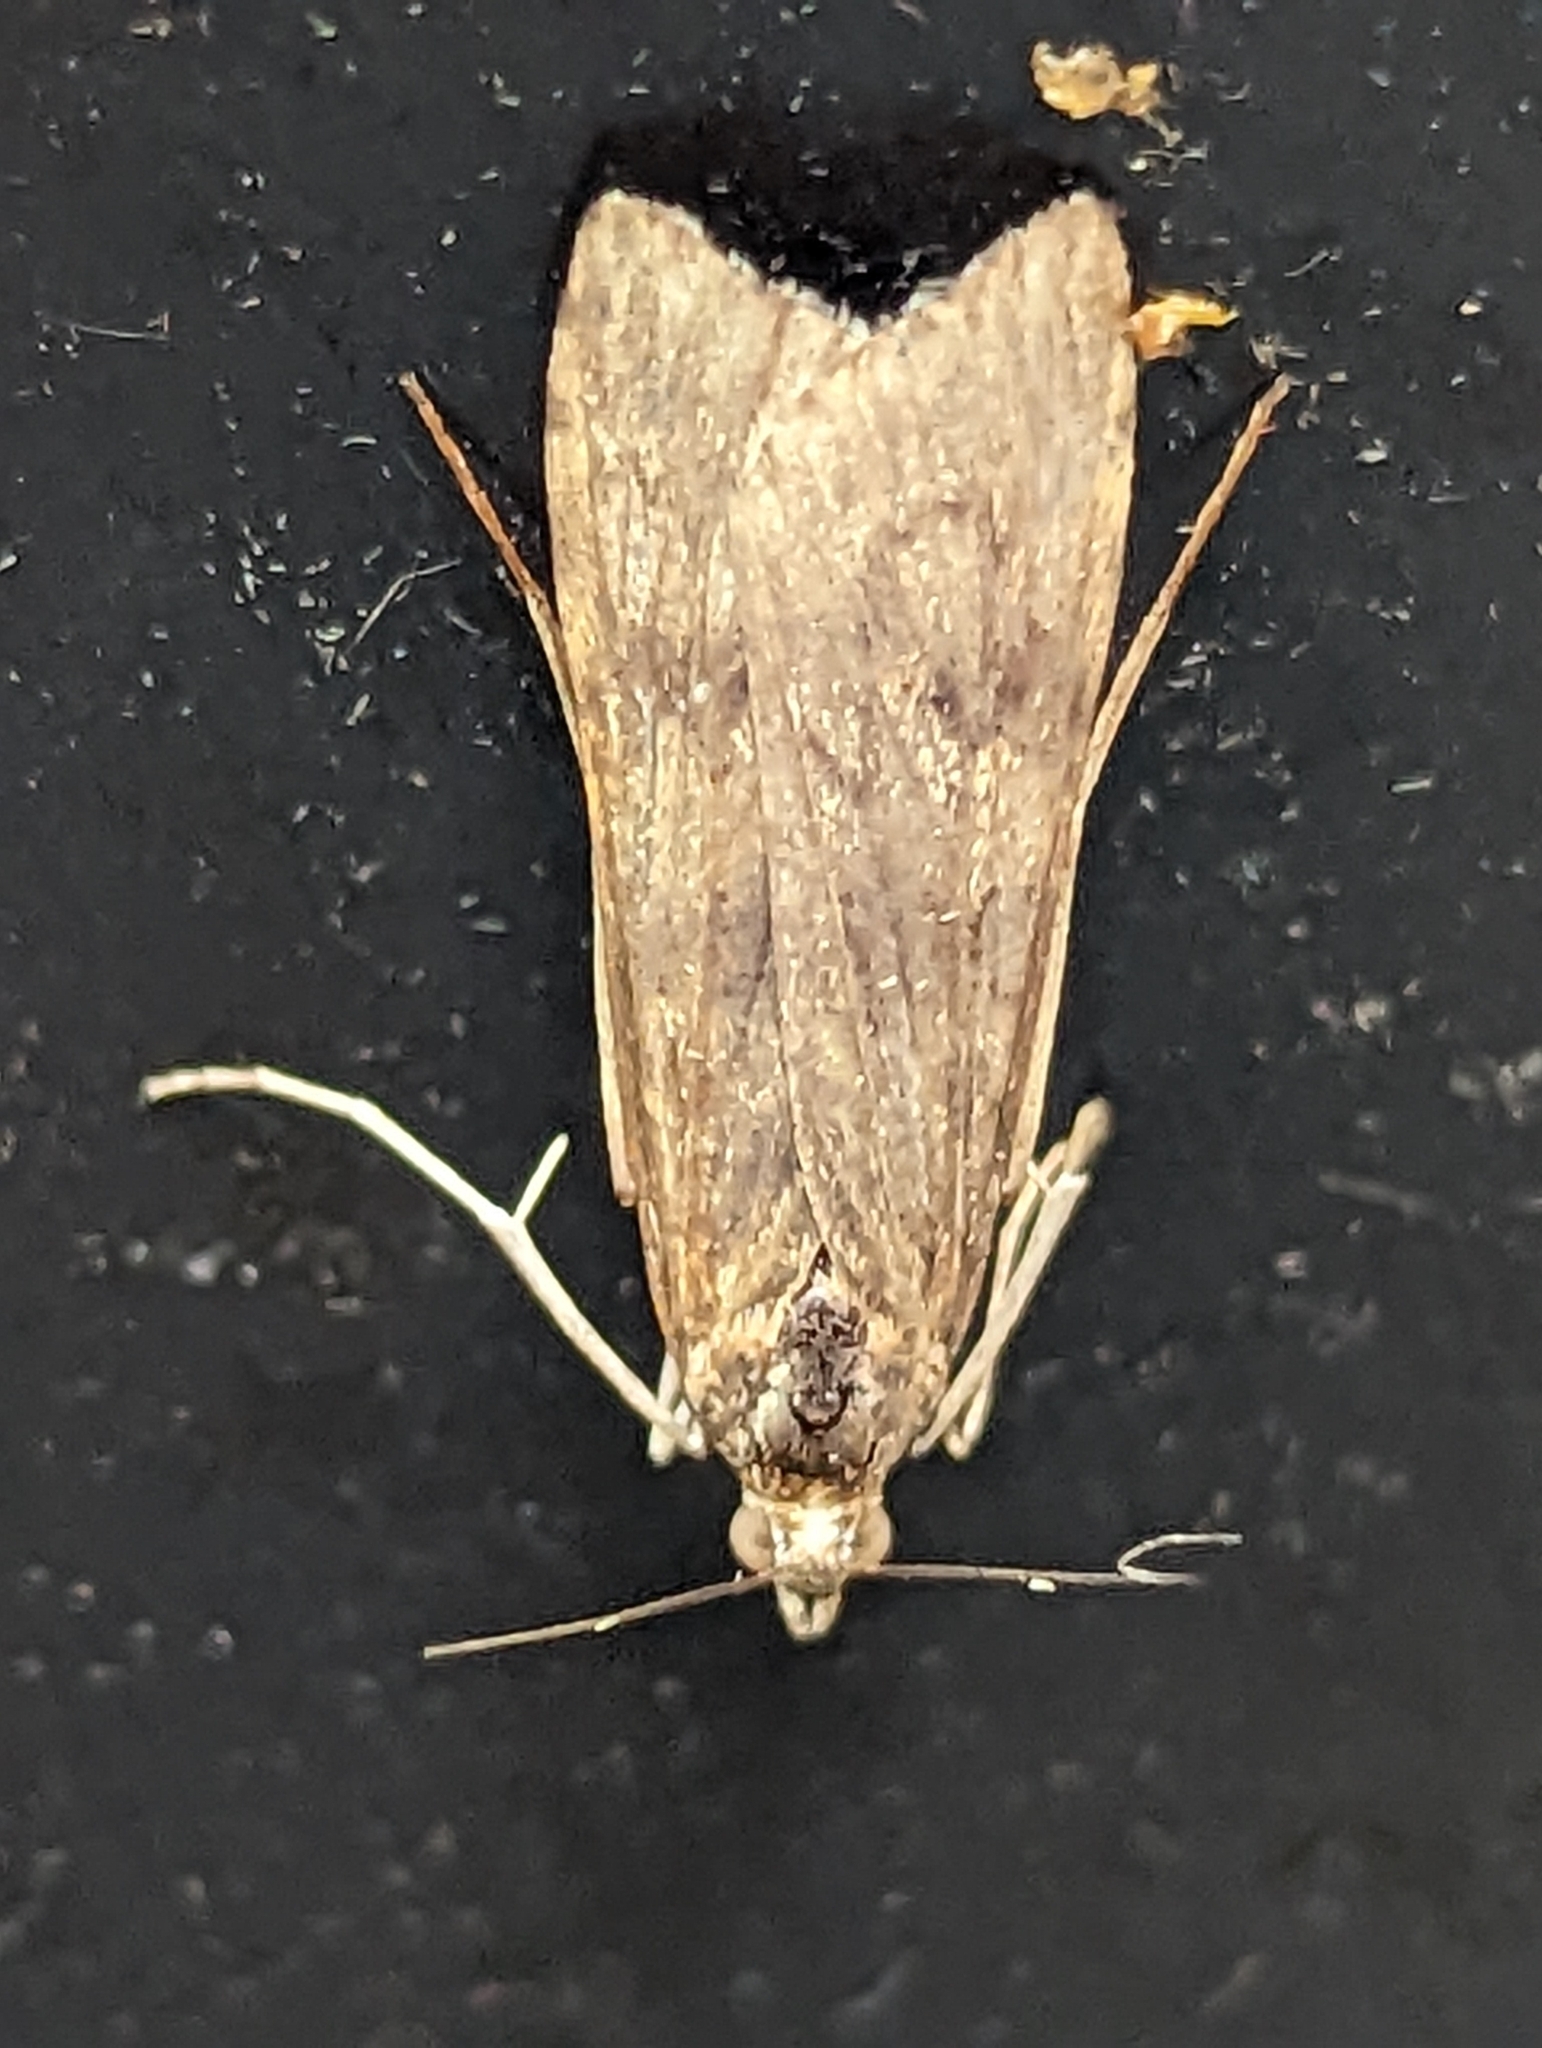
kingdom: Animalia
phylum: Arthropoda
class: Insecta
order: Lepidoptera
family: Crambidae
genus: Nomophila
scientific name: Nomophila noctuella
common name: Rush veneer
